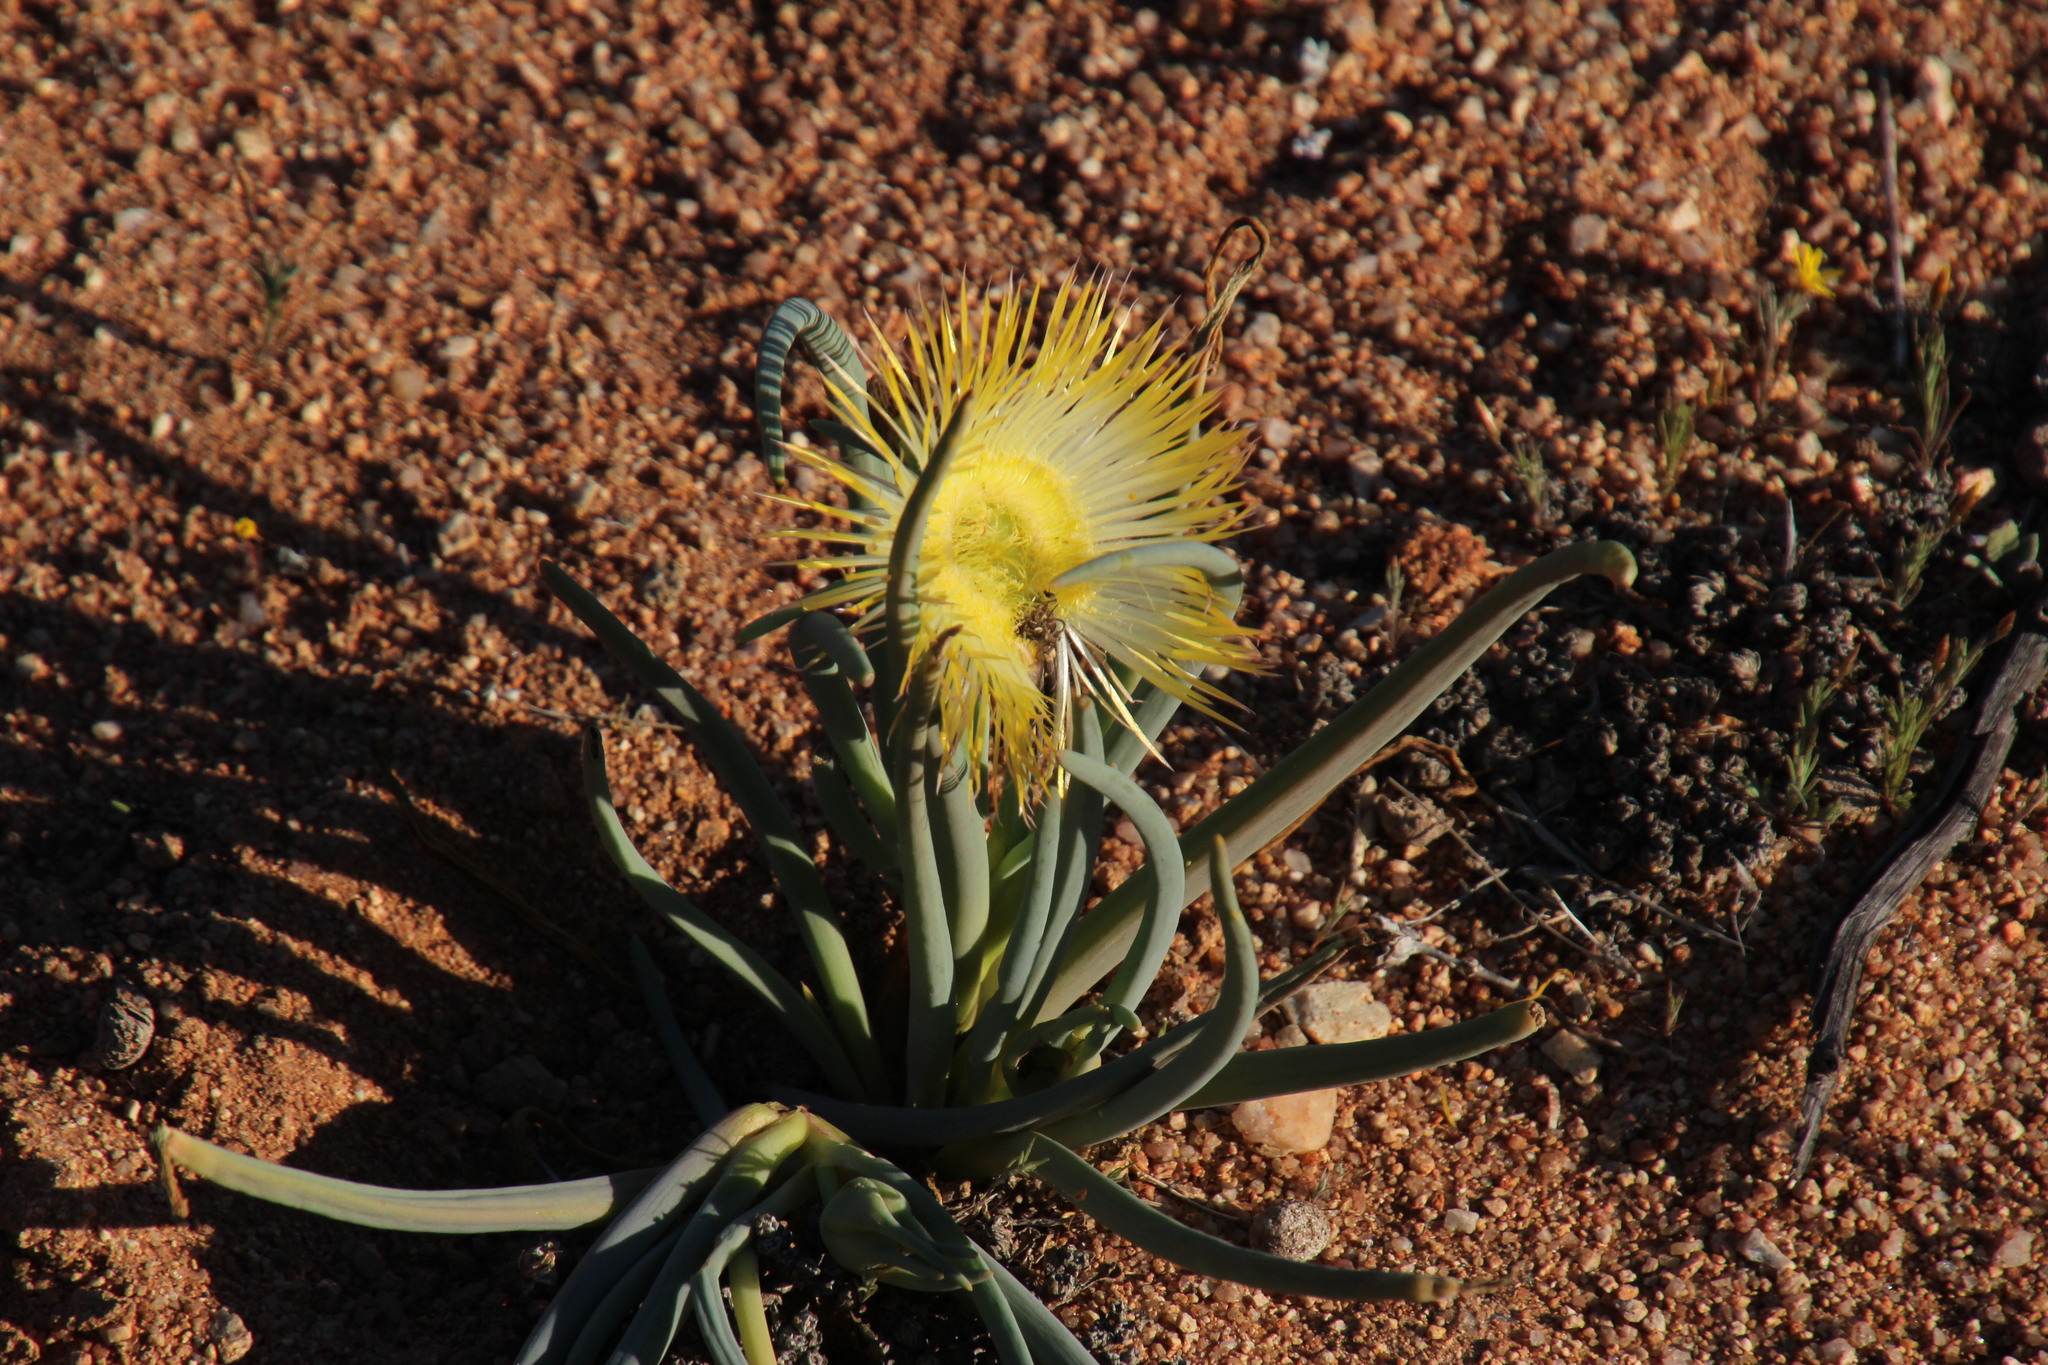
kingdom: Plantae
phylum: Tracheophyta
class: Magnoliopsida
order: Caryophyllales
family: Aizoaceae
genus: Conicosia
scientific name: Conicosia elongata
